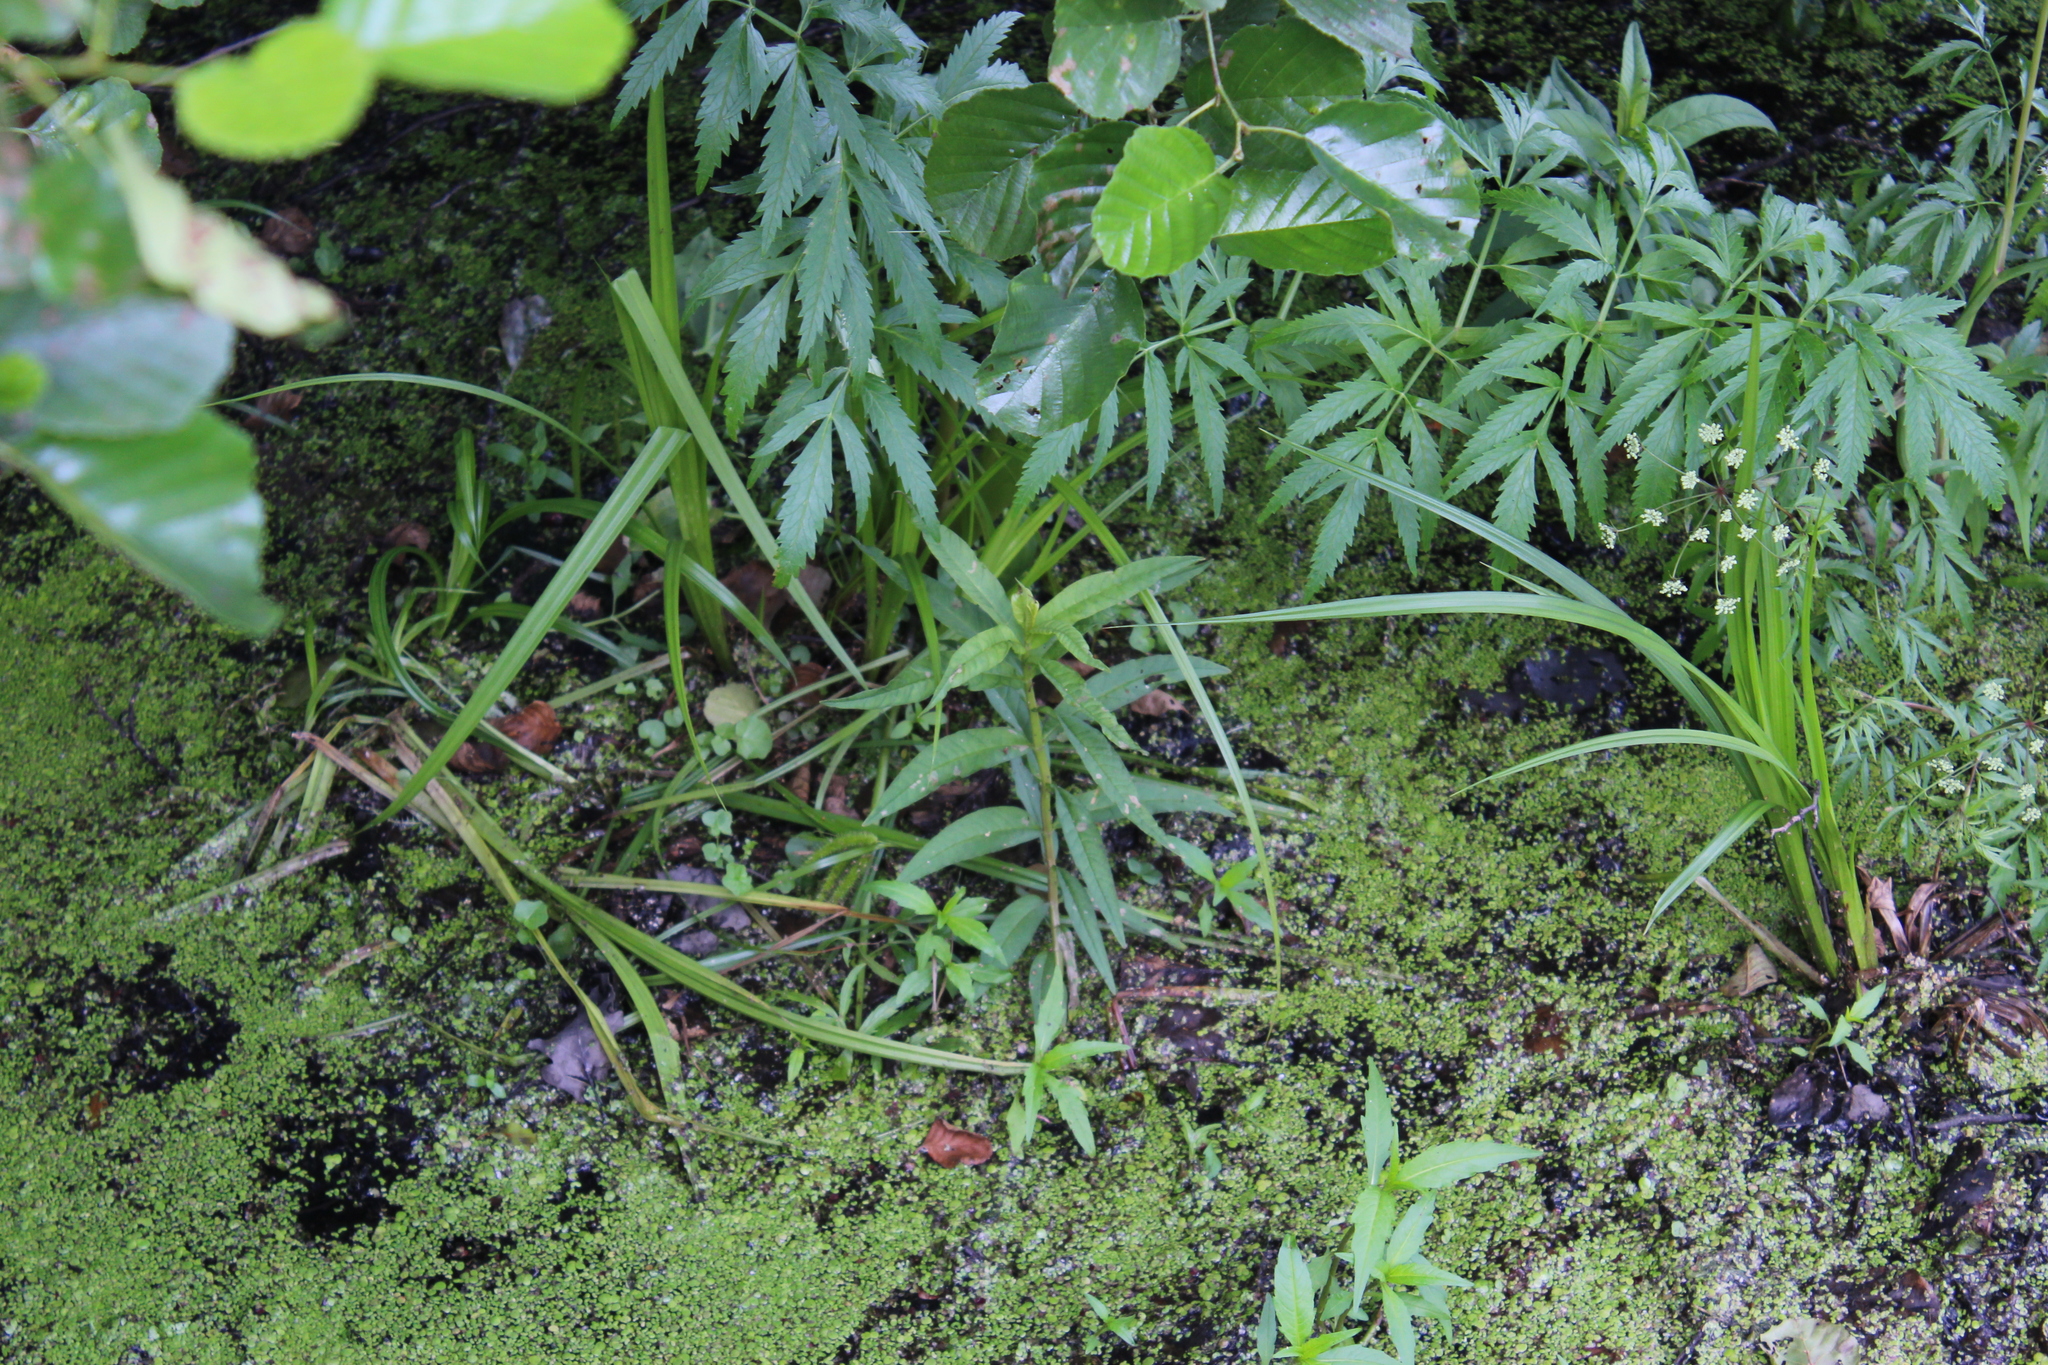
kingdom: Plantae
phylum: Tracheophyta
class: Magnoliopsida
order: Ericales
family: Primulaceae
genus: Lysimachia
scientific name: Lysimachia thyrsiflora
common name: Tufted loosestrife
